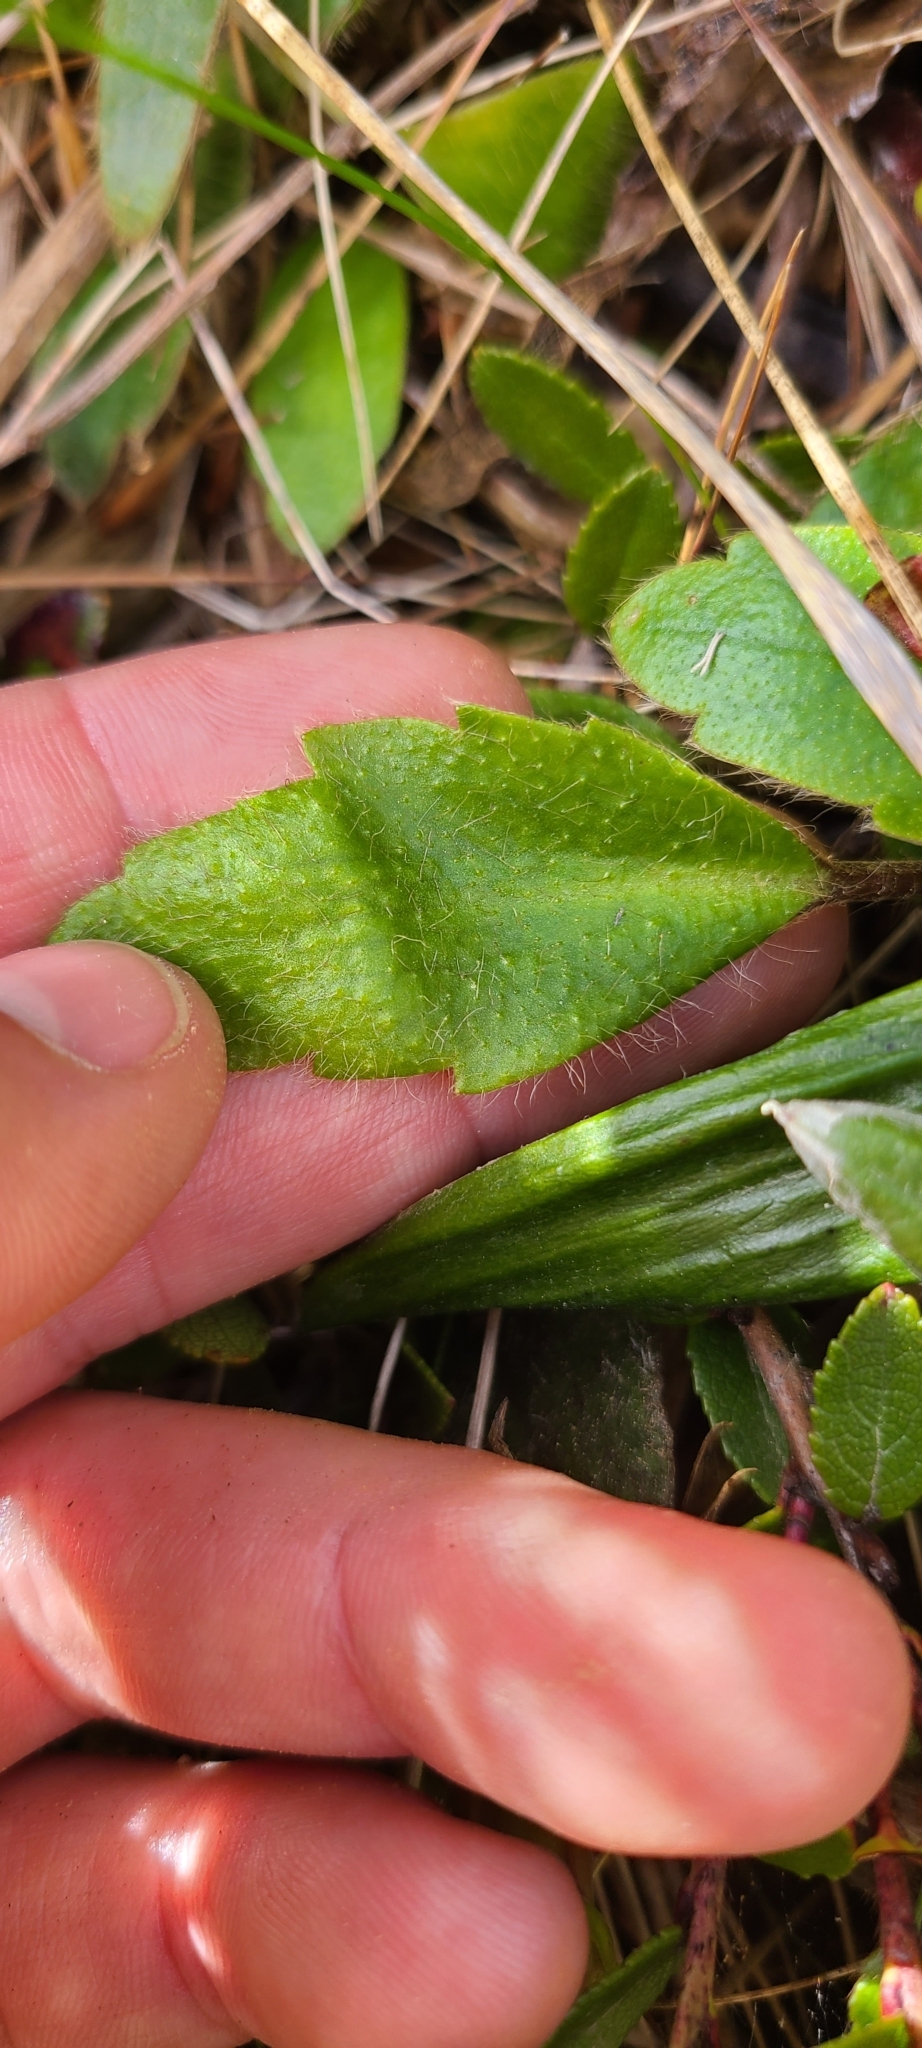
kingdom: Plantae
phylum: Tracheophyta
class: Magnoliopsida
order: Ranunculales
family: Ranunculaceae
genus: Ranunculus
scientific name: Ranunculus insignis
